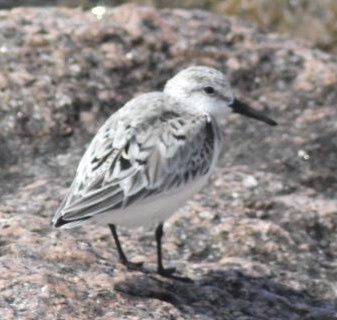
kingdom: Animalia
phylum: Chordata
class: Aves
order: Charadriiformes
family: Scolopacidae
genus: Calidris
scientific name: Calidris alba
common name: Sanderling
